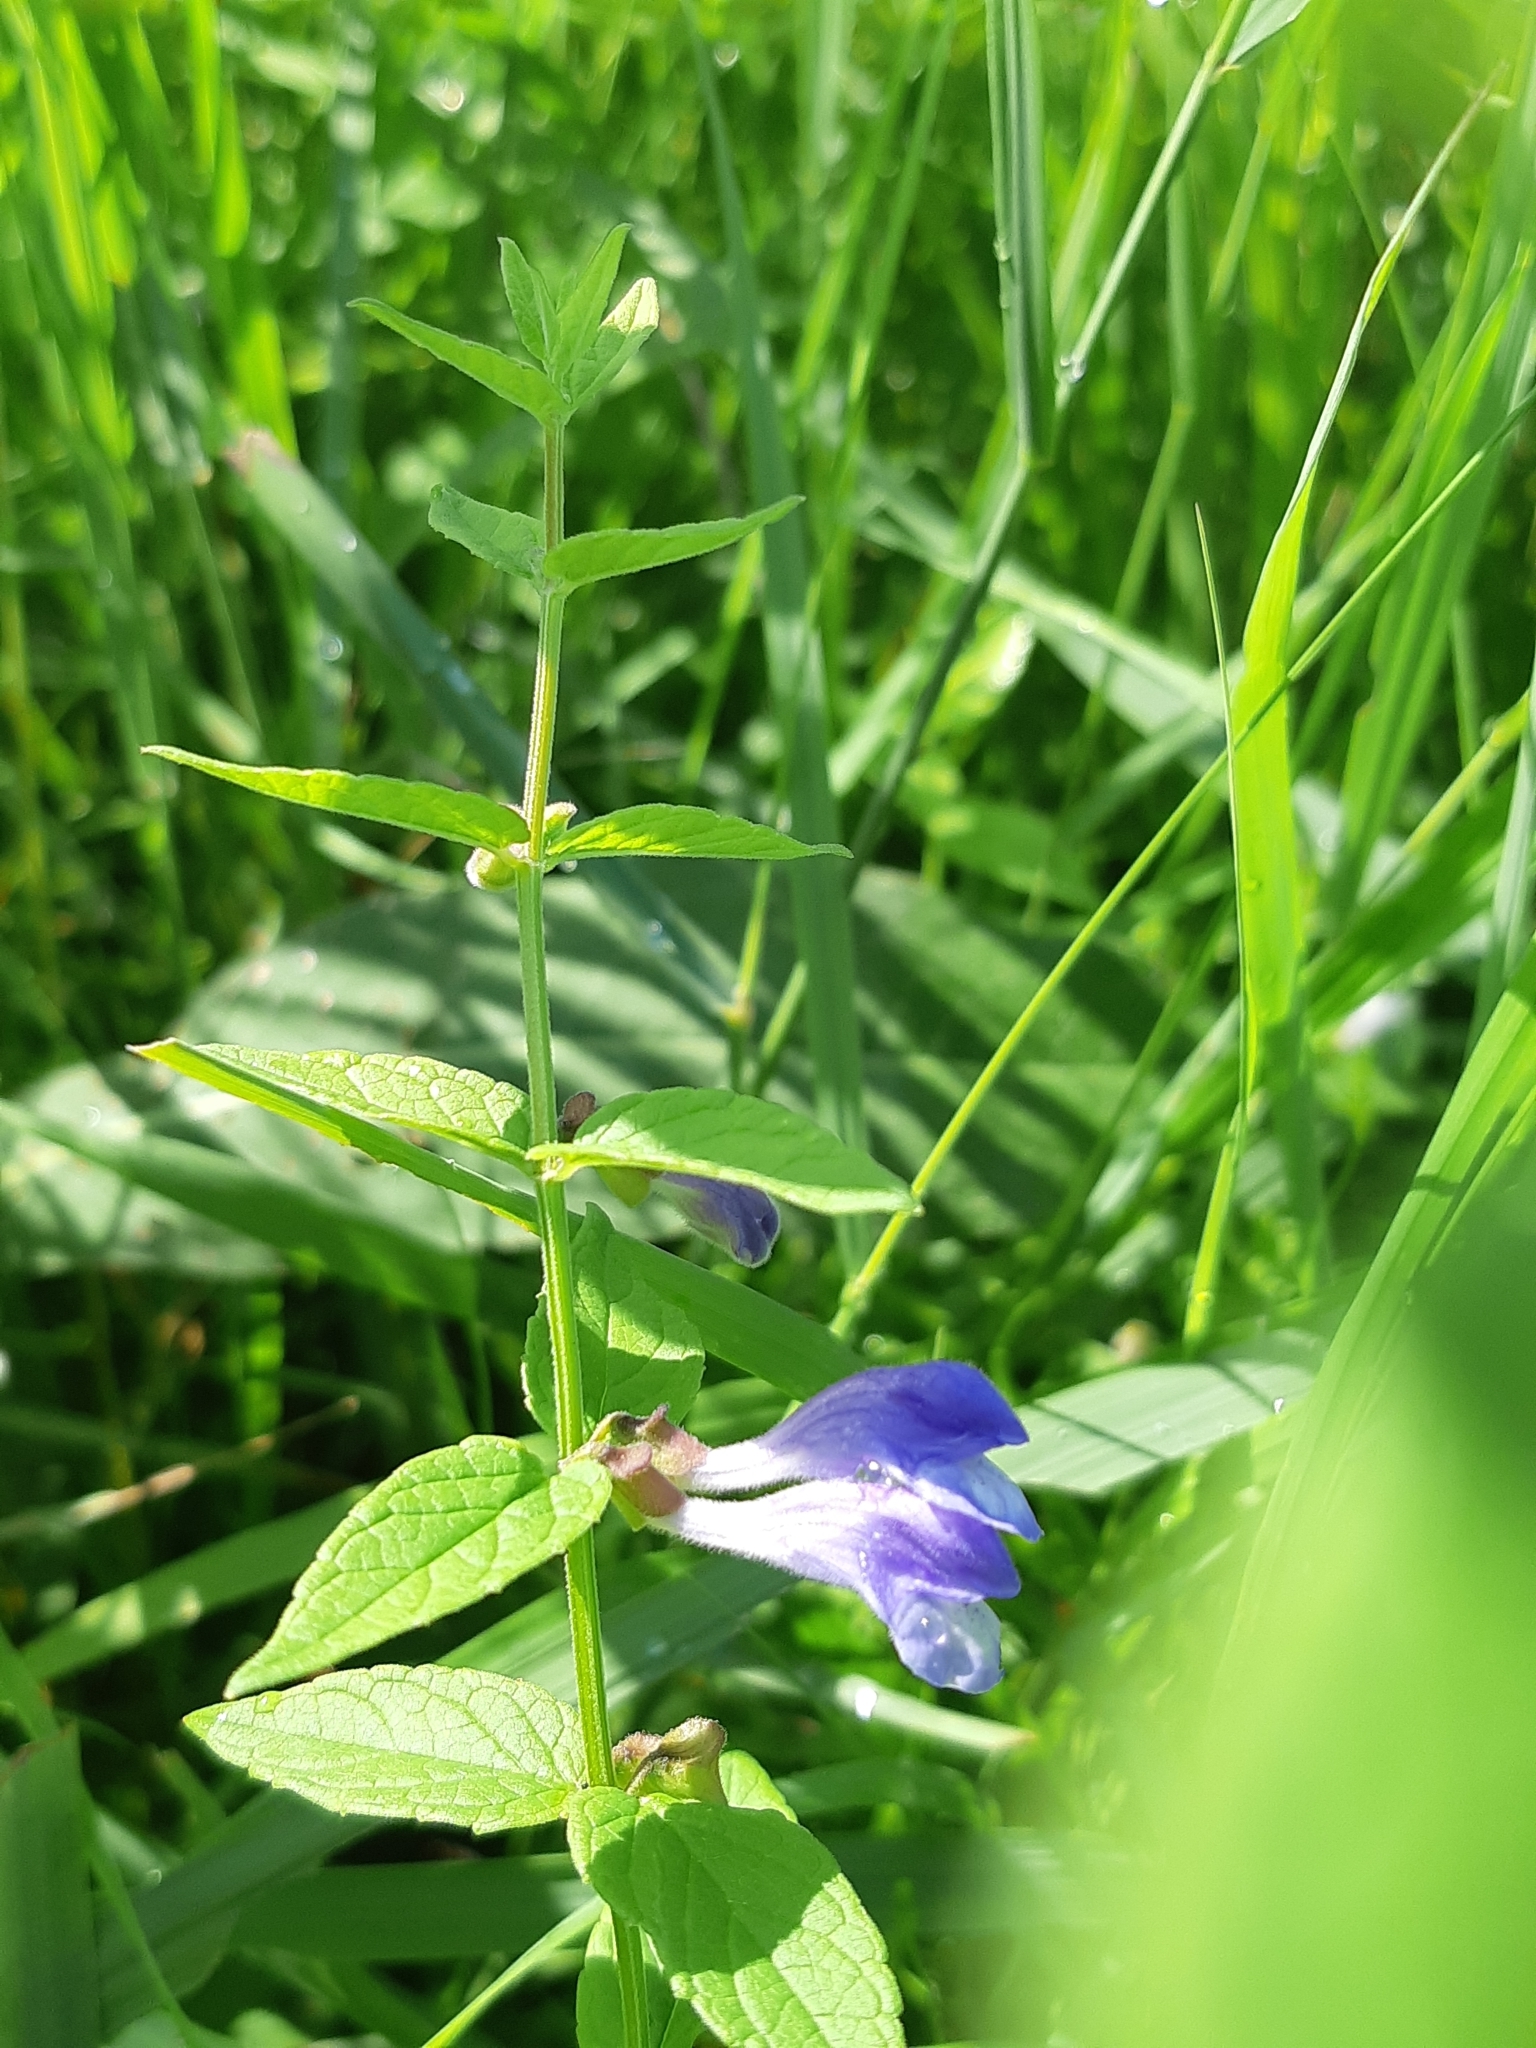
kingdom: Plantae
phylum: Tracheophyta
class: Magnoliopsida
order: Lamiales
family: Lamiaceae
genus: Scutellaria
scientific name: Scutellaria galericulata
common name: Skullcap
